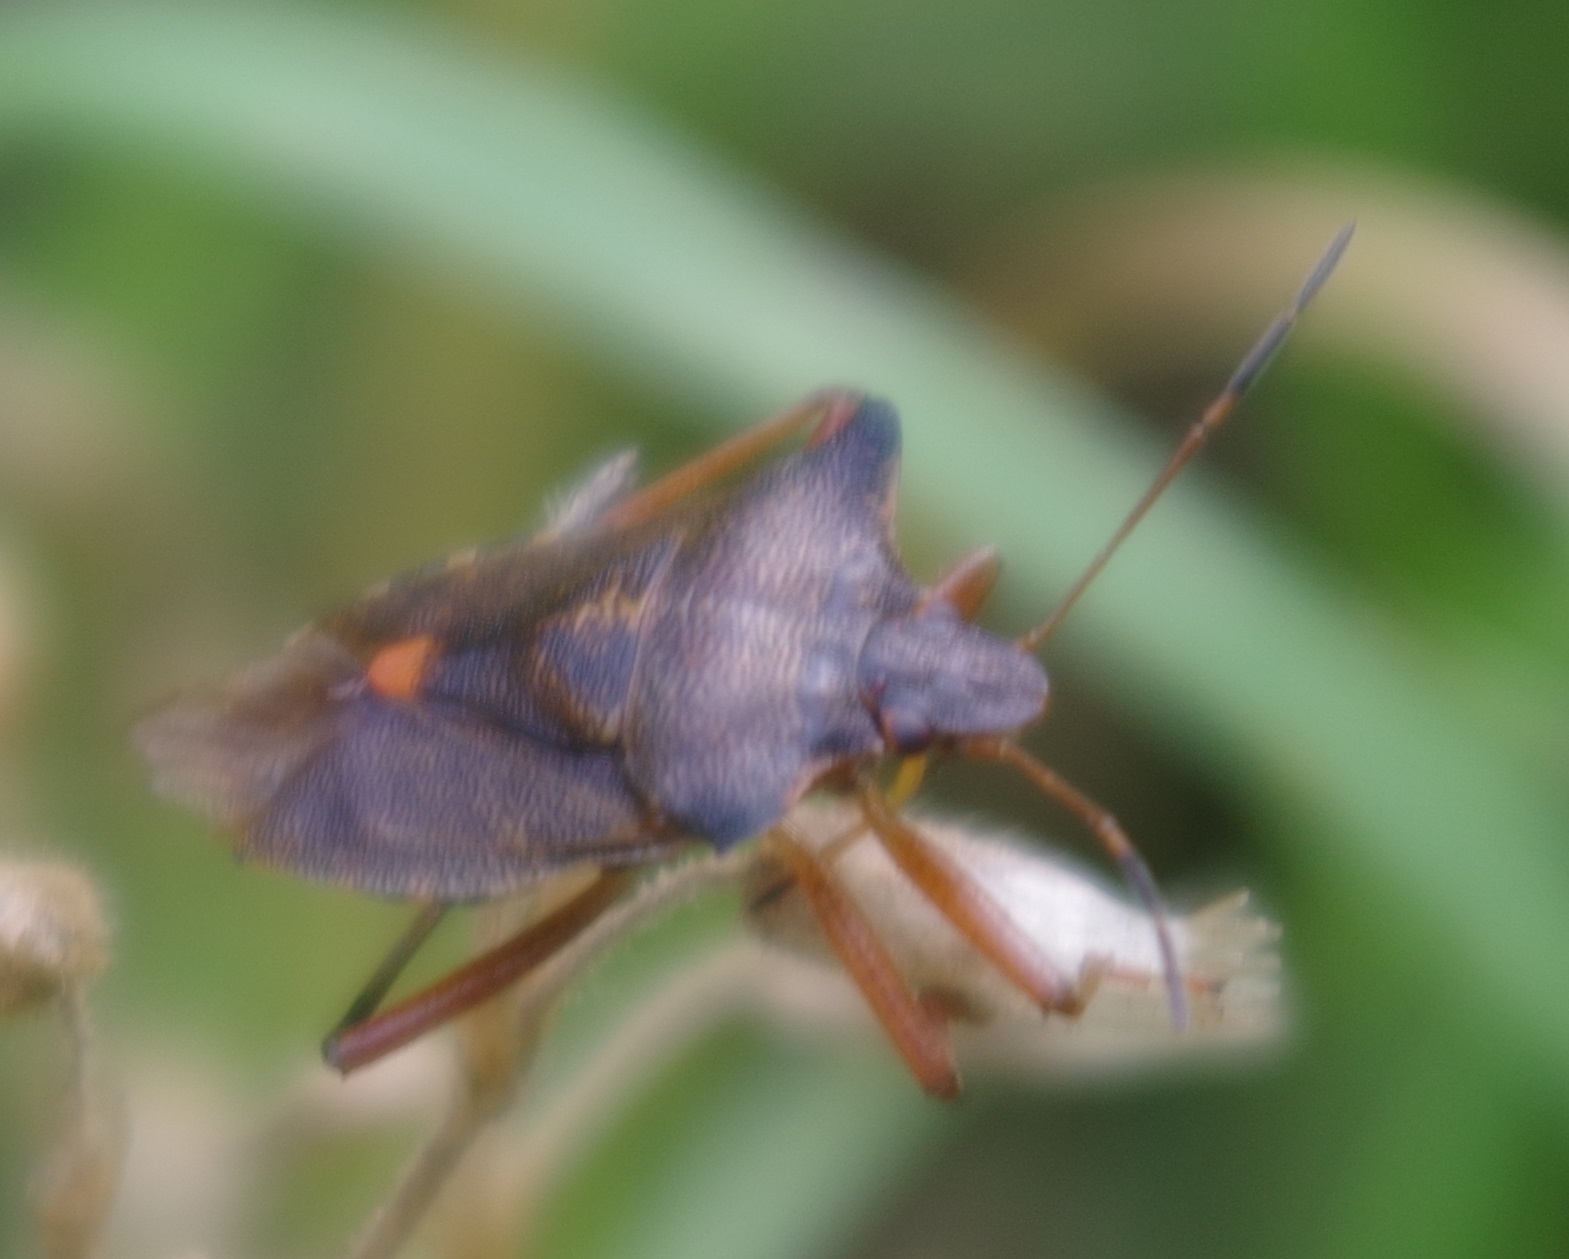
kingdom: Animalia
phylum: Arthropoda
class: Insecta
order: Hemiptera
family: Pentatomidae
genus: Pentatoma
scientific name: Pentatoma rufipes
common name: Forest bug
